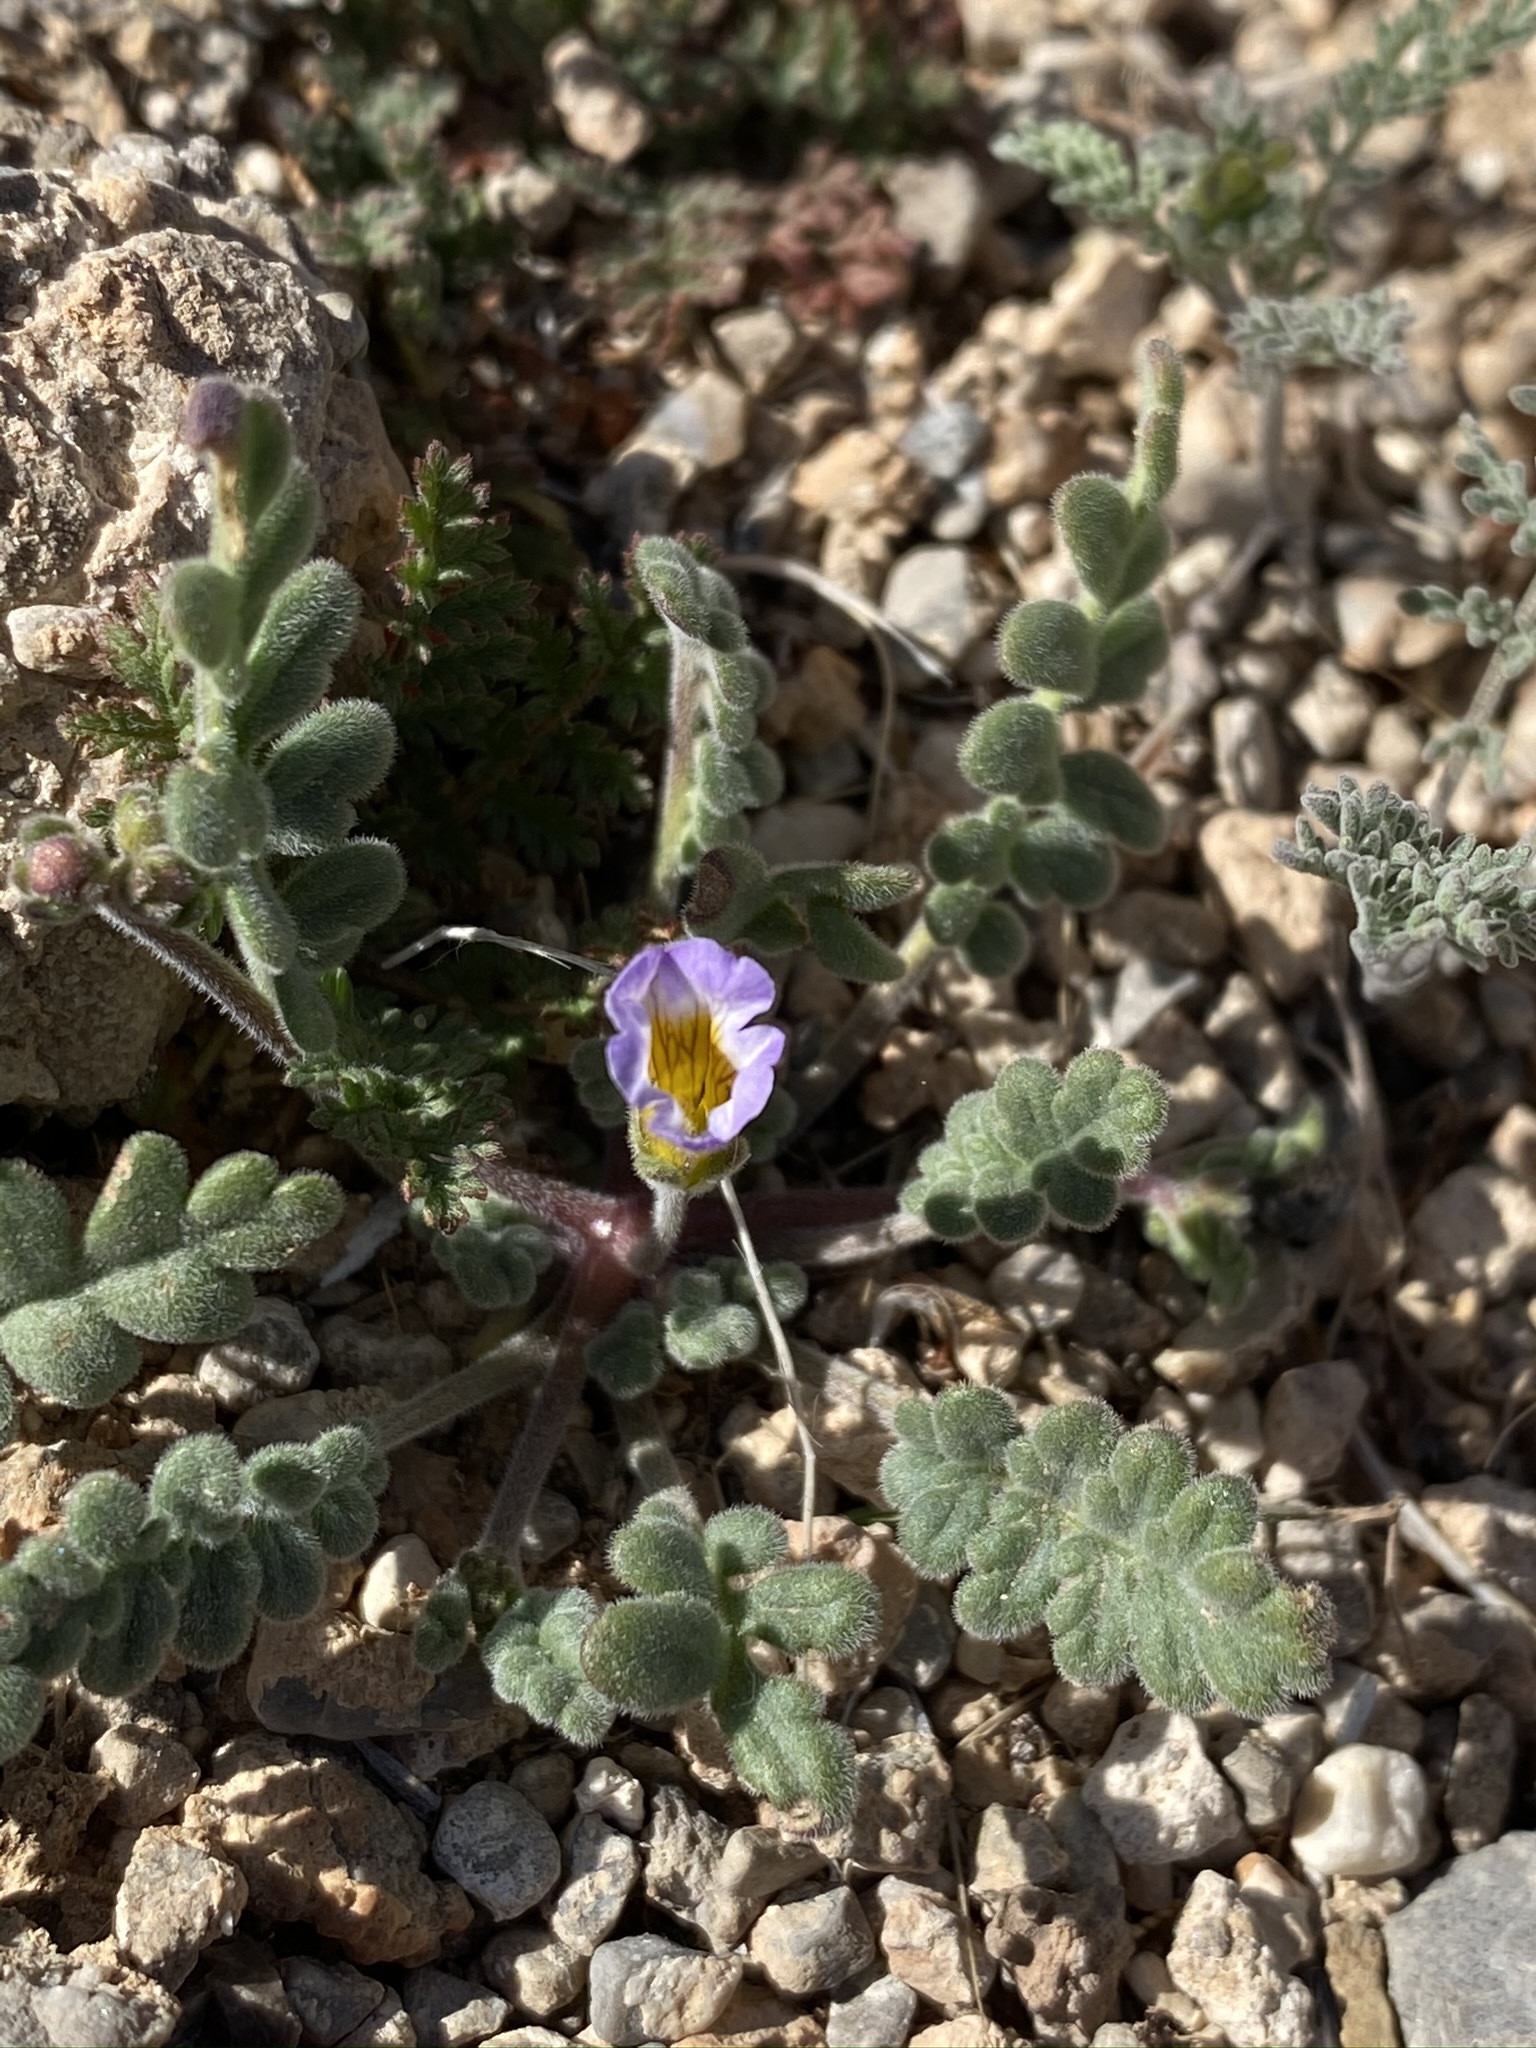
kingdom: Plantae
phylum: Tracheophyta
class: Magnoliopsida
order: Boraginales
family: Hydrophyllaceae
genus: Phacelia
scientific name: Phacelia fremontii
